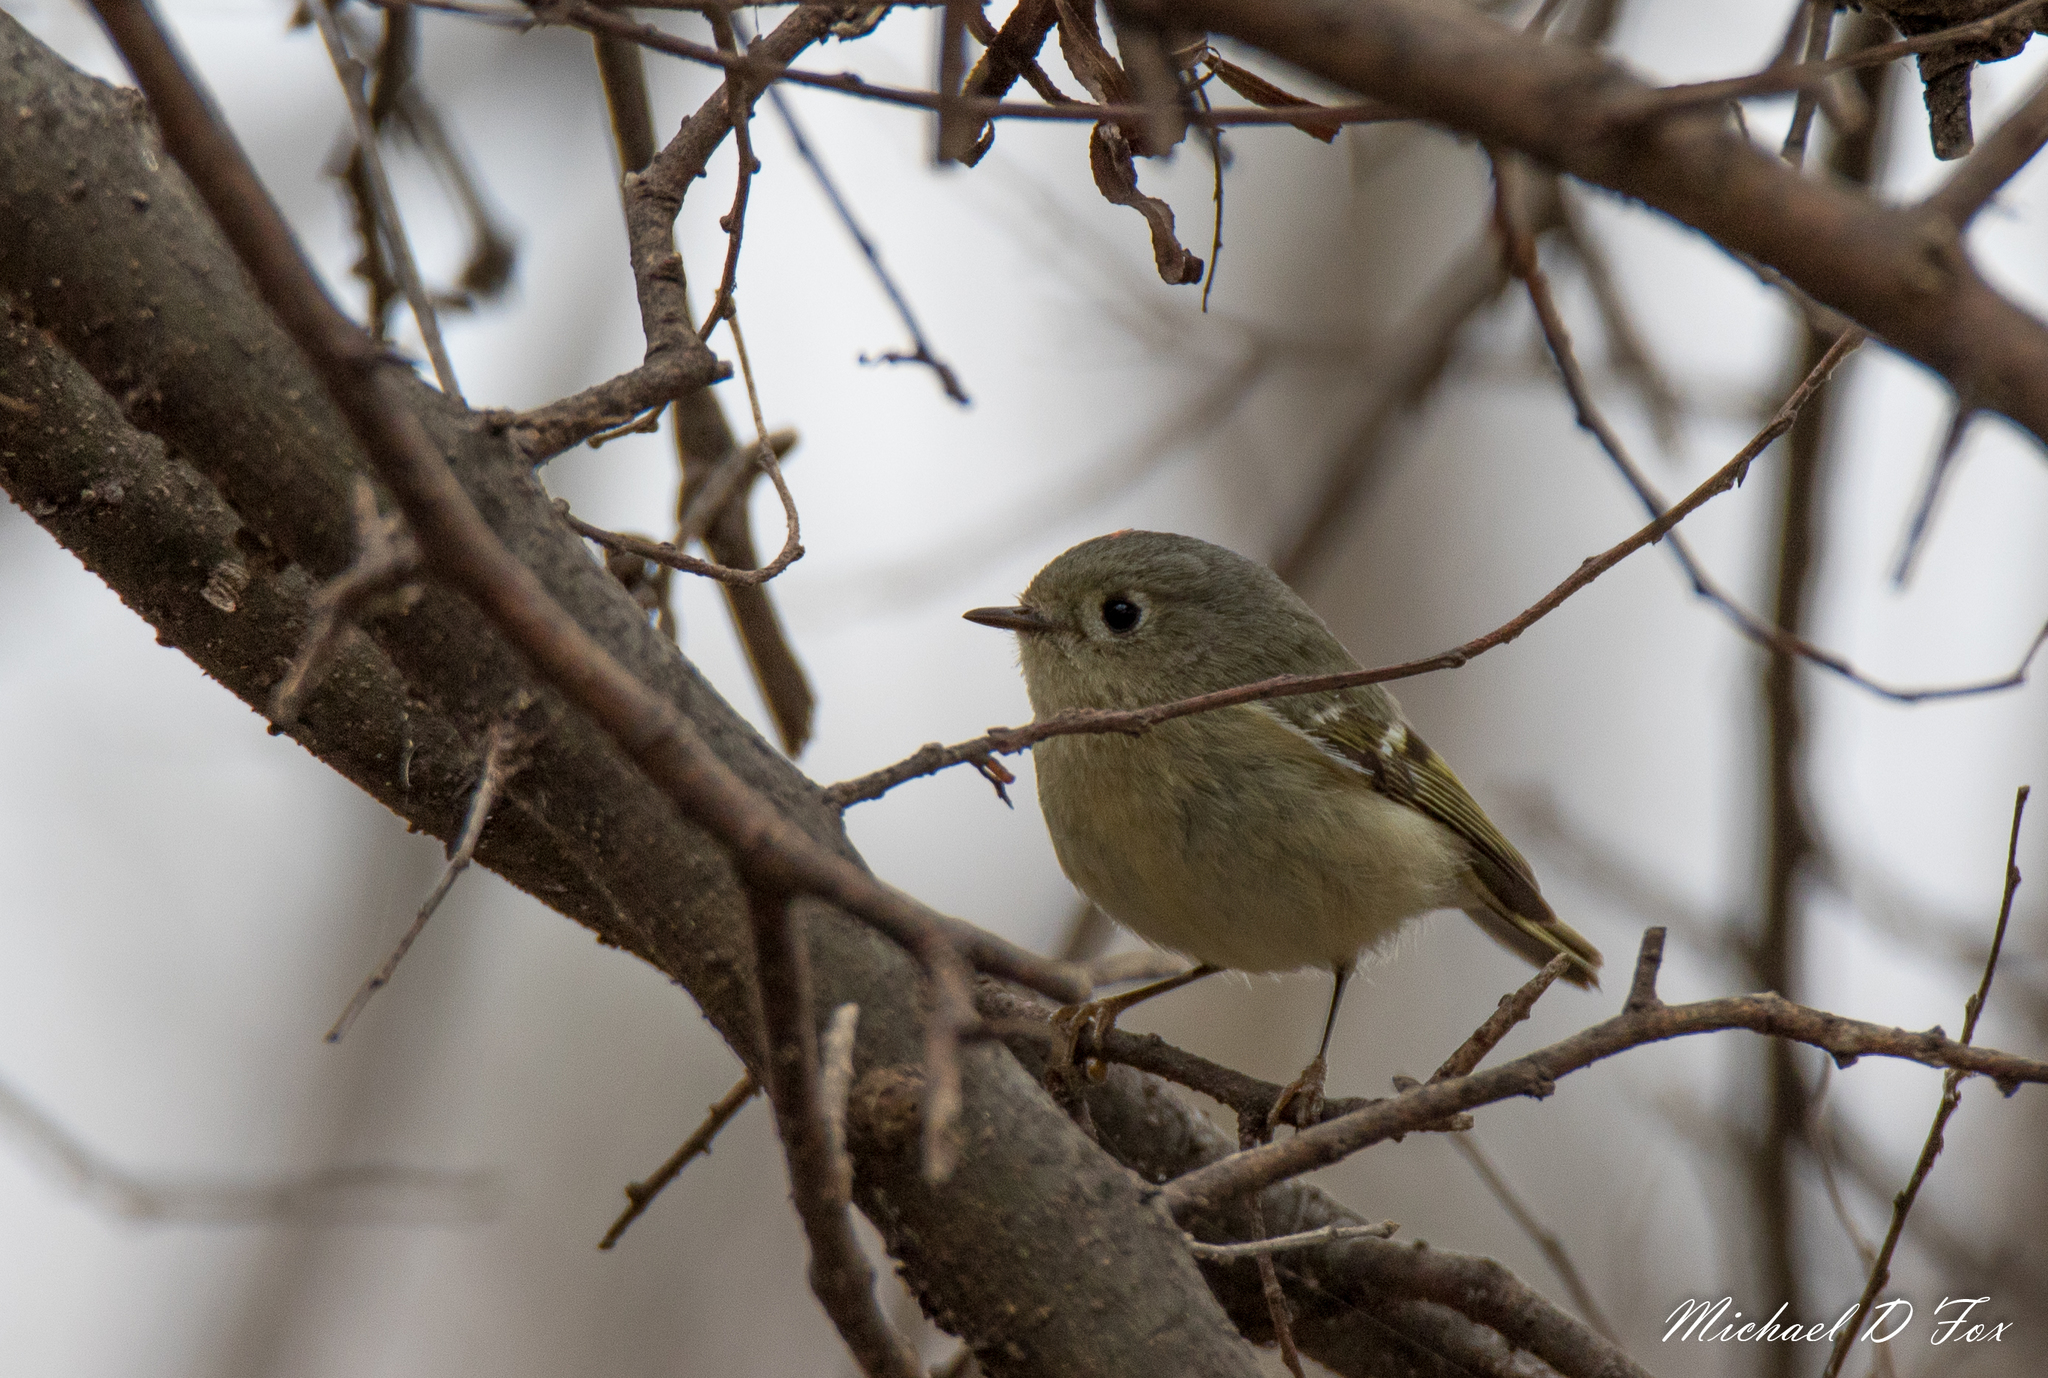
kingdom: Animalia
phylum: Chordata
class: Aves
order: Passeriformes
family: Regulidae
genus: Regulus
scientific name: Regulus calendula
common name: Ruby-crowned kinglet
